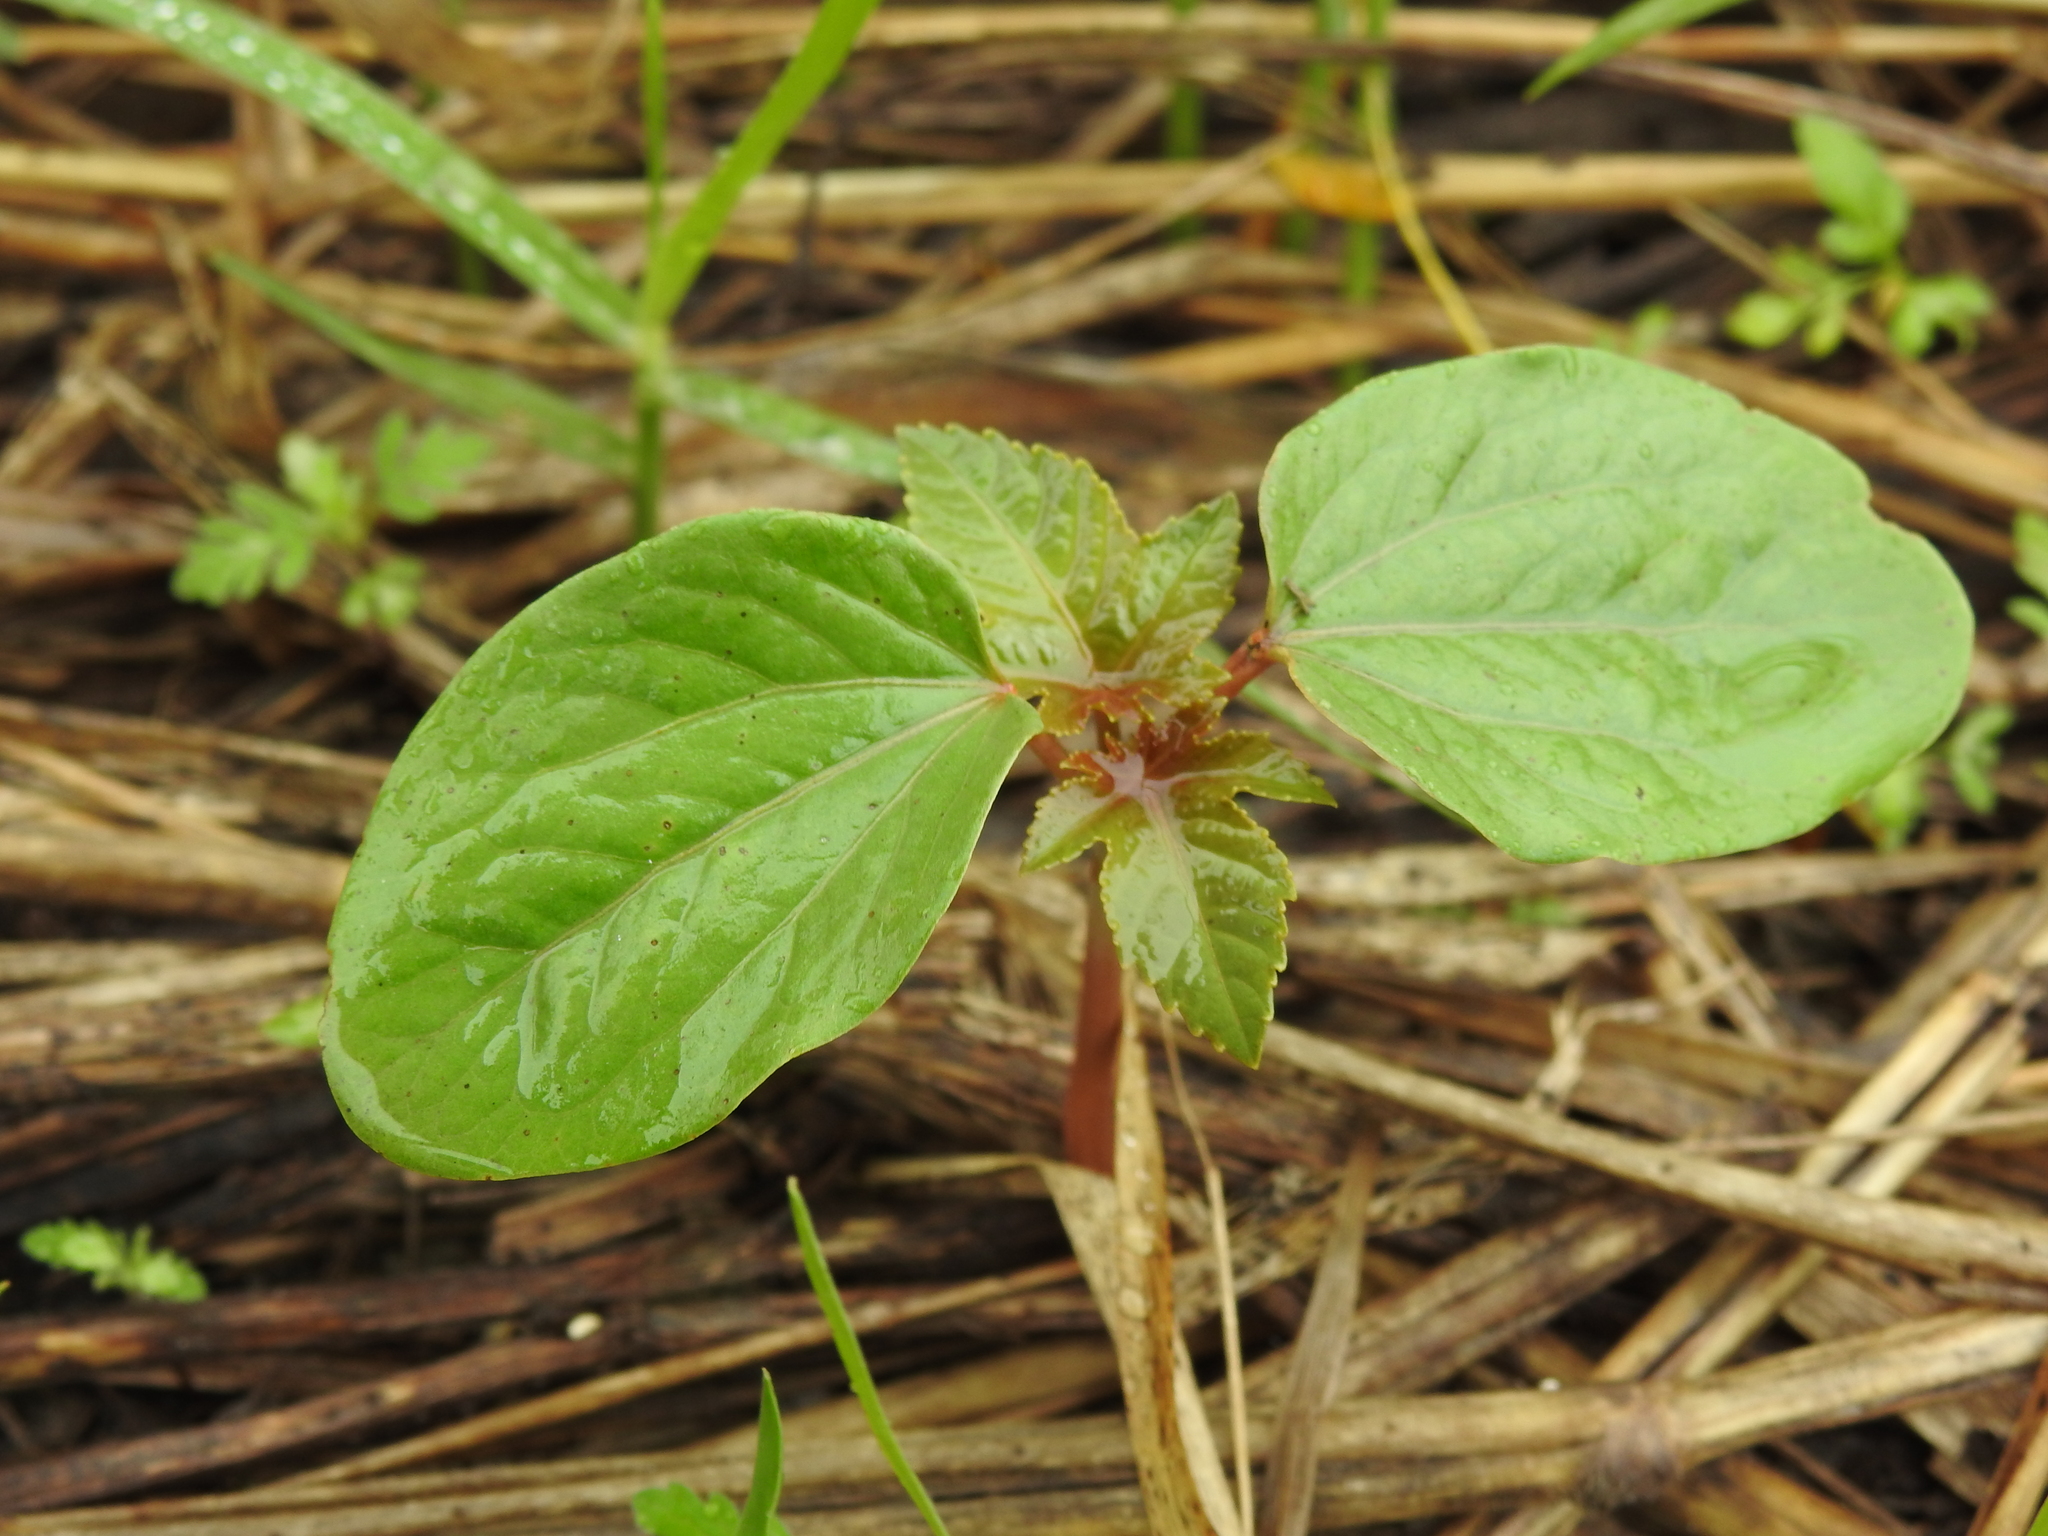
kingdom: Plantae
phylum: Tracheophyta
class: Magnoliopsida
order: Malpighiales
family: Euphorbiaceae
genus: Ricinus
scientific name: Ricinus communis
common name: Castor-oil-plant
